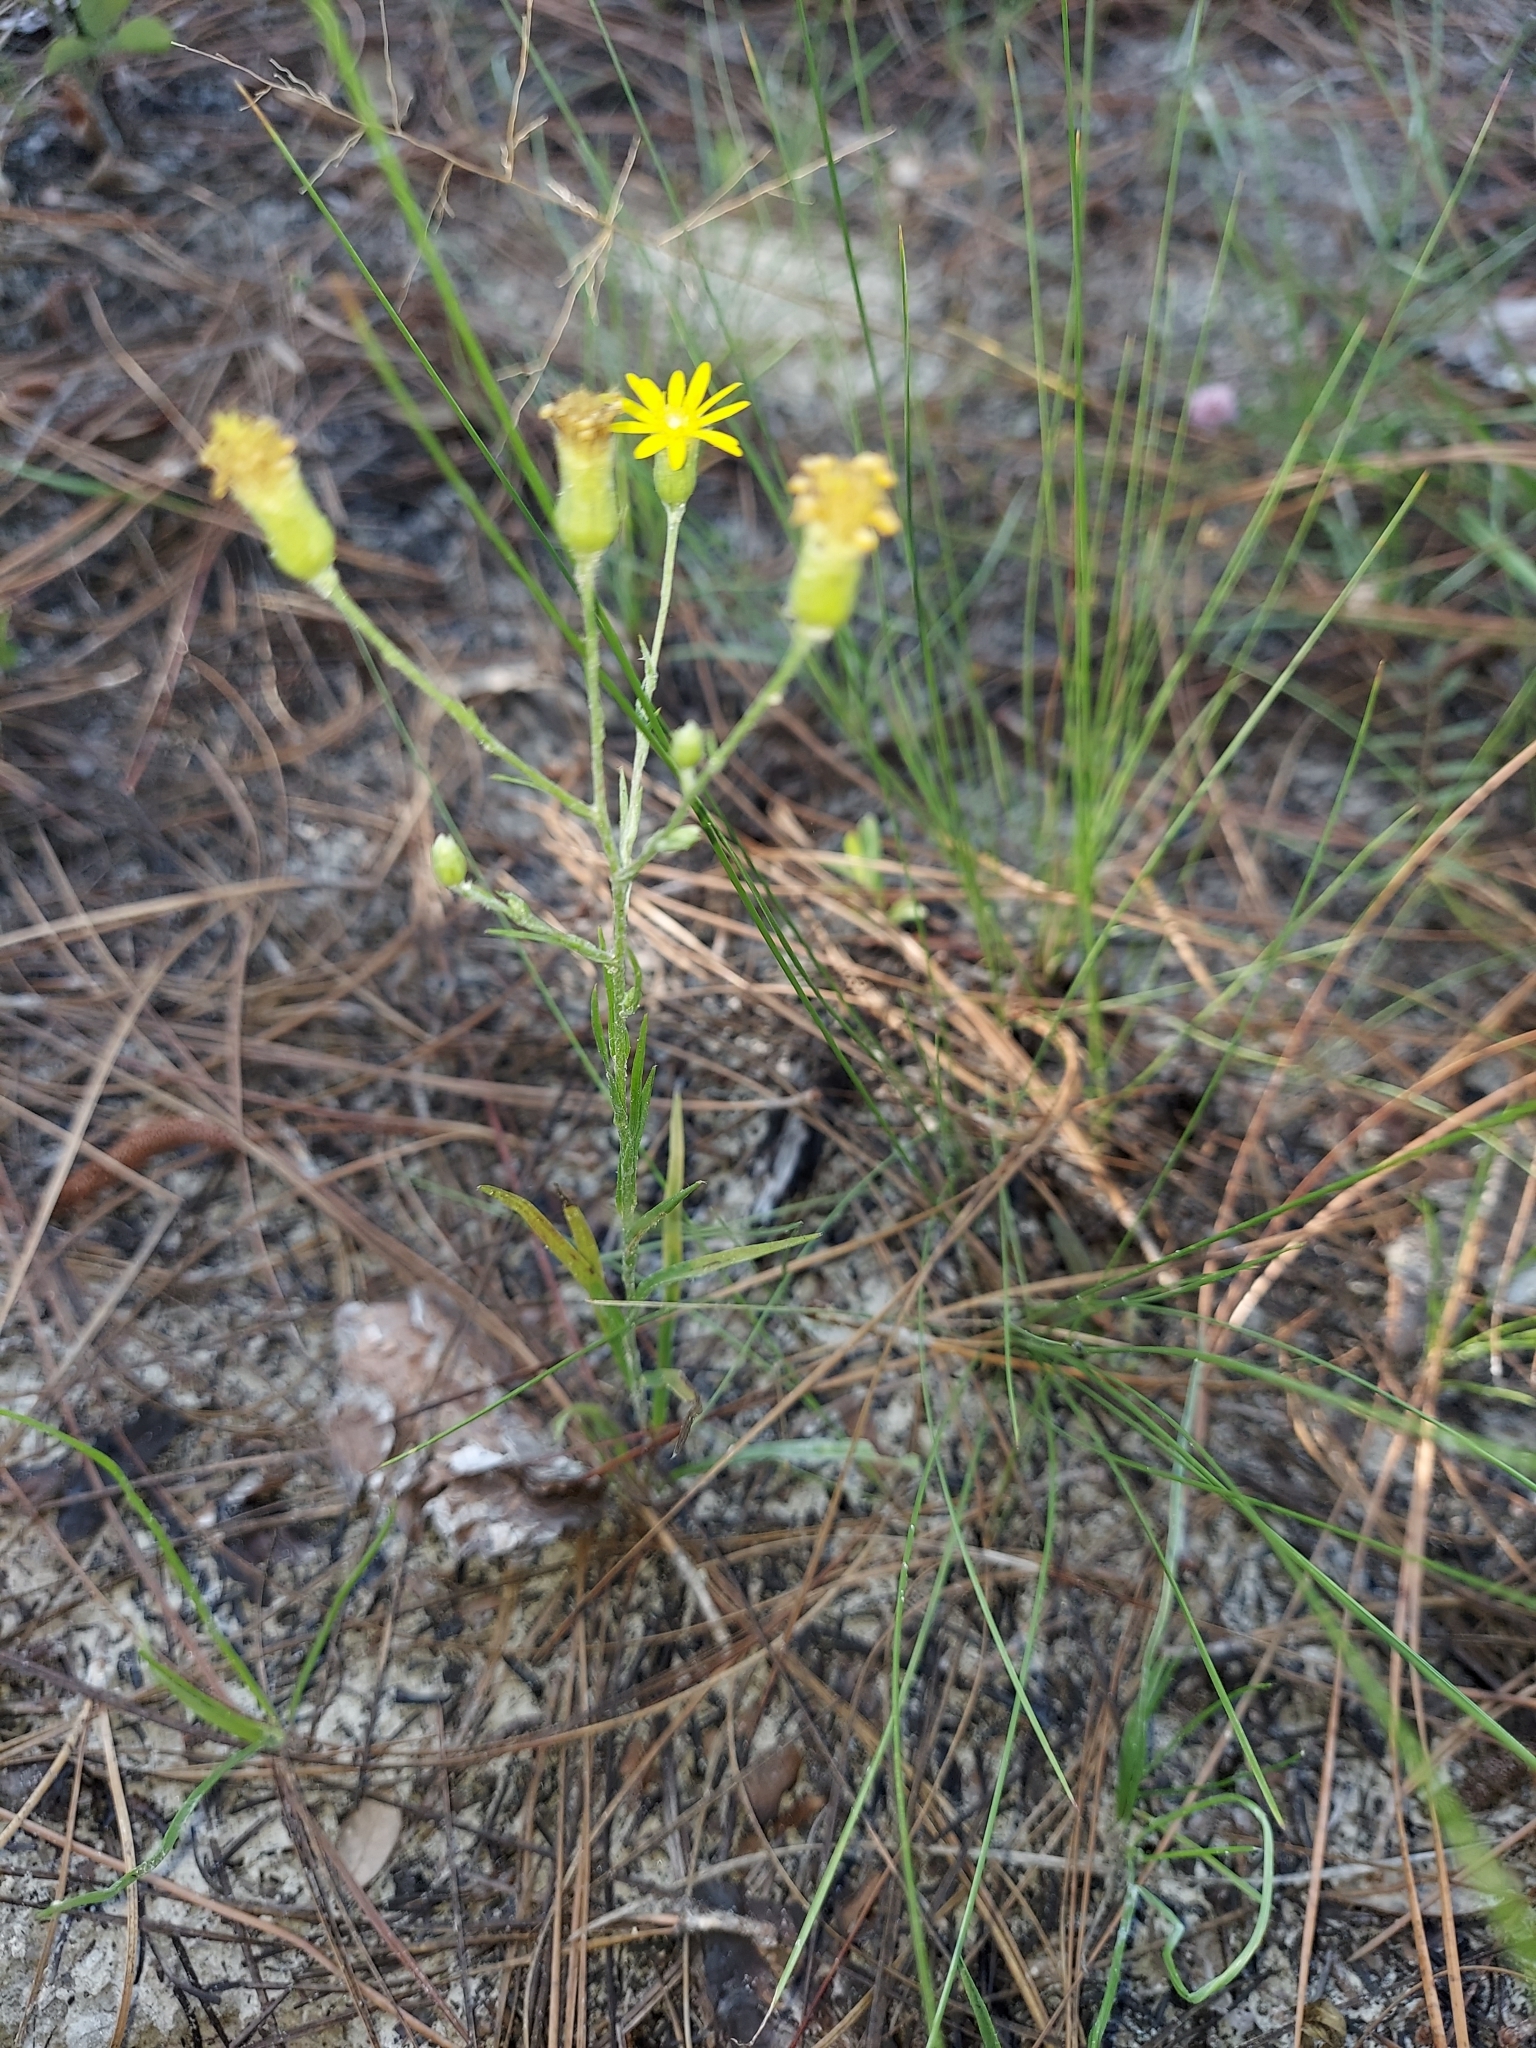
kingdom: Plantae
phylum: Tracheophyta
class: Magnoliopsida
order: Asterales
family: Asteraceae
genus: Pityopsis
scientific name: Pityopsis graminifolia
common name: Grass-leaf golden-aster
